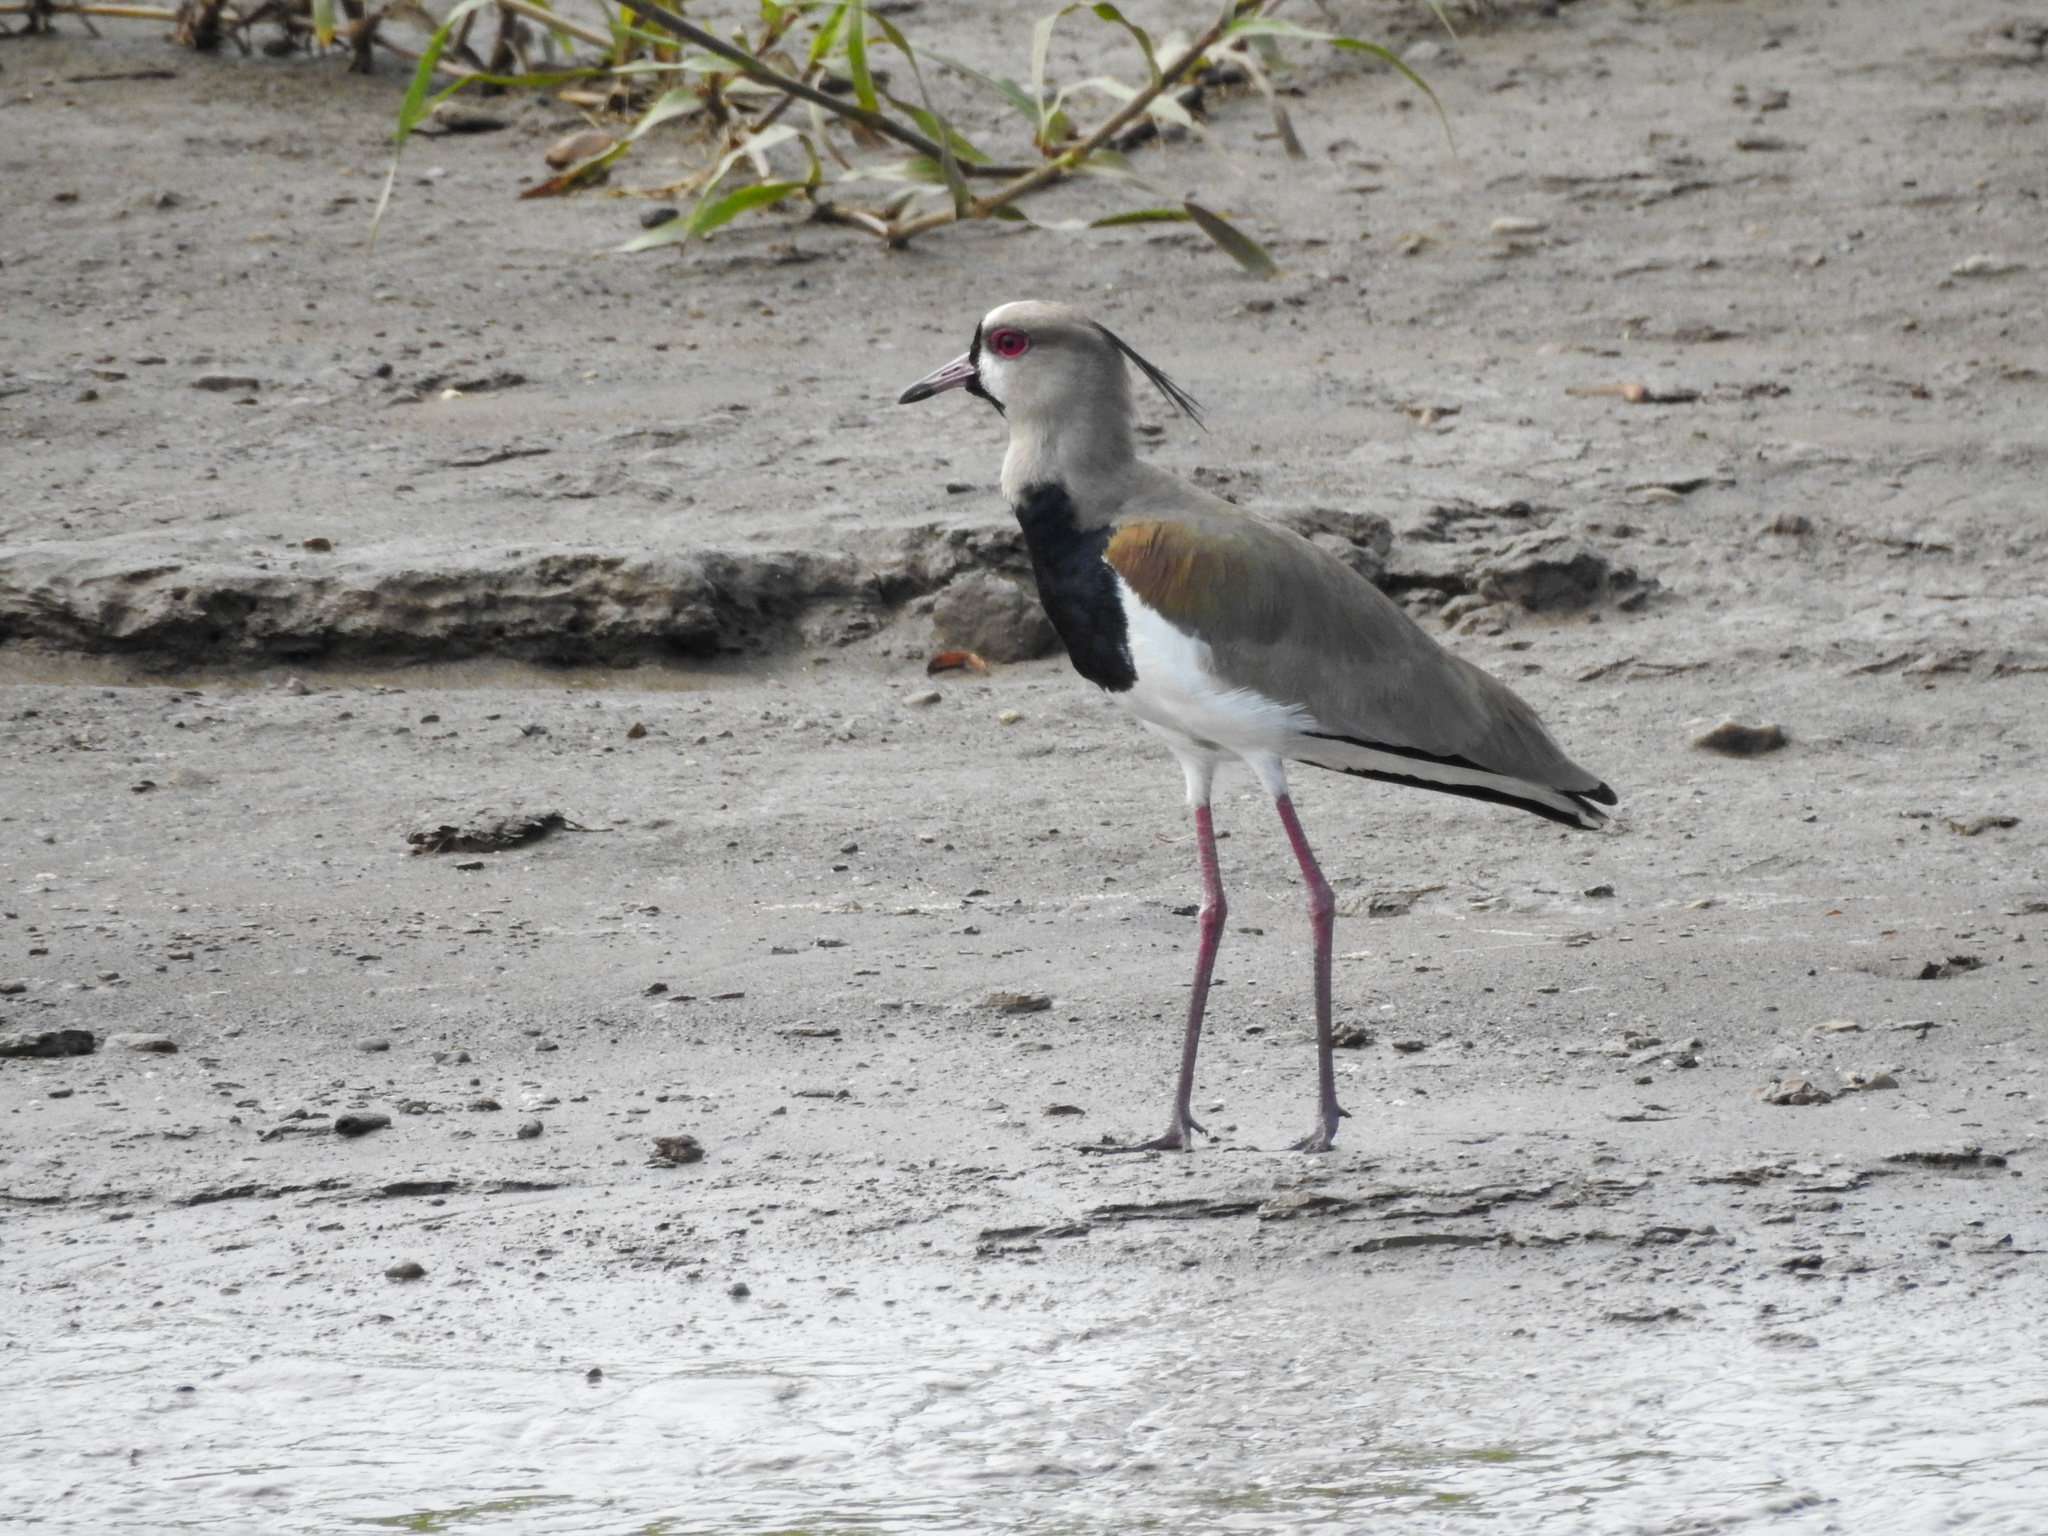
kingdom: Animalia
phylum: Chordata
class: Aves
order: Charadriiformes
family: Charadriidae
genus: Vanellus
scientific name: Vanellus chilensis
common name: Southern lapwing
